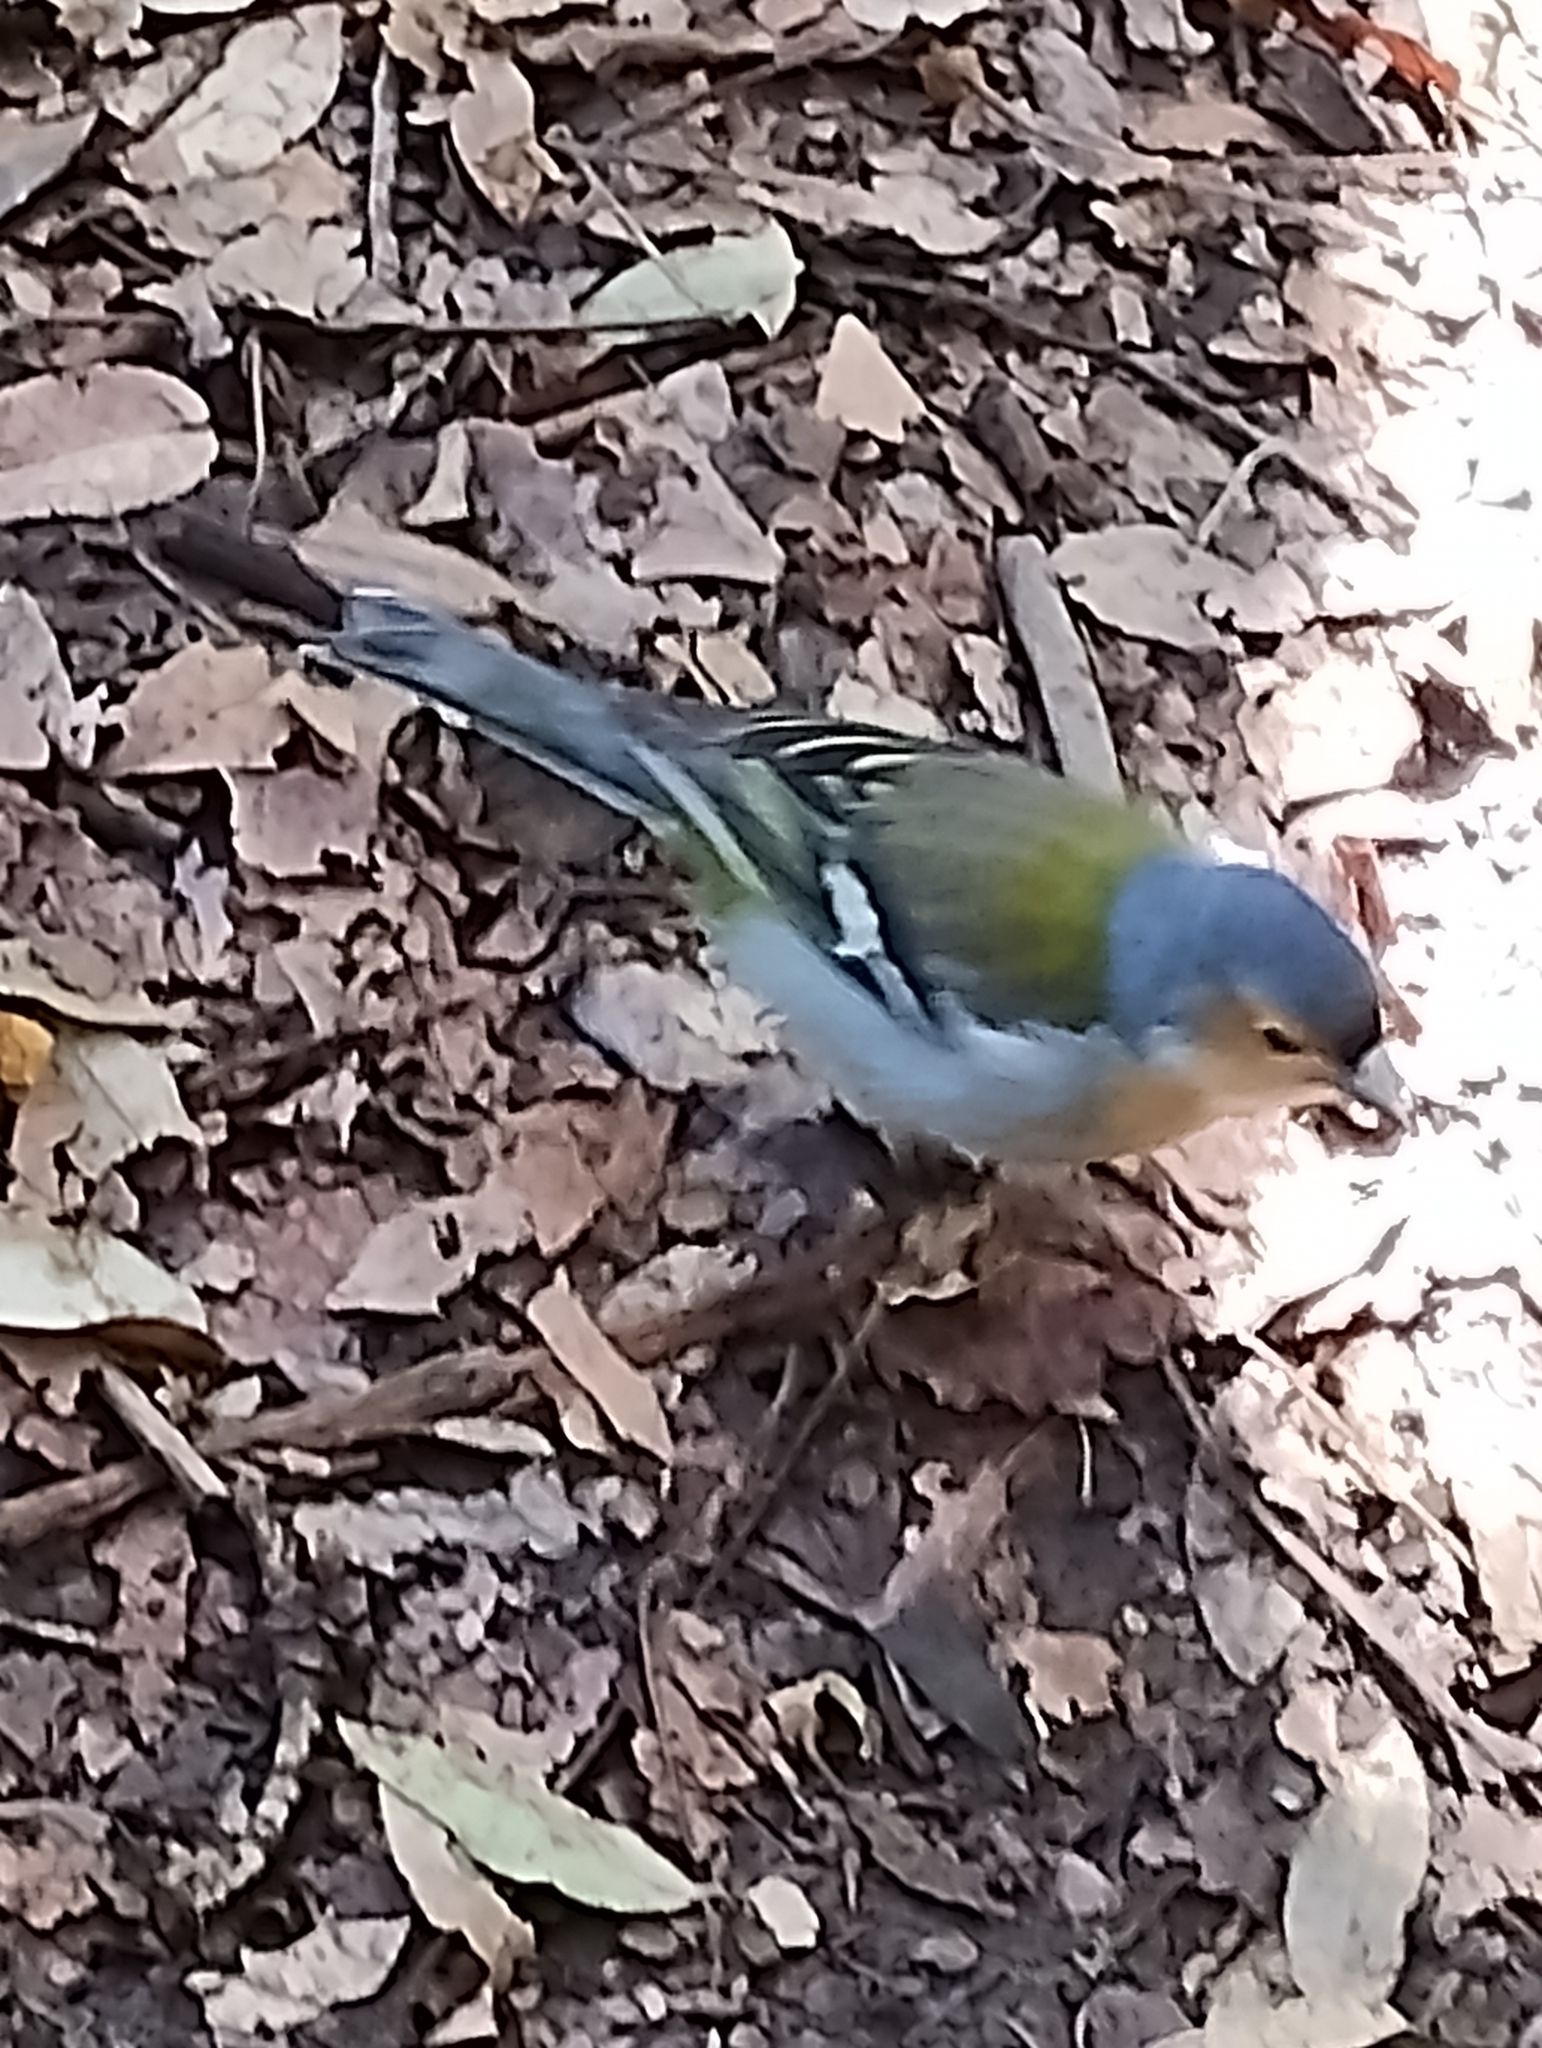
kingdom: Animalia
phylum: Chordata
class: Aves
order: Passeriformes
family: Fringillidae
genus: Fringilla
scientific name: Fringilla maderensis
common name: Madeira chaffinch
